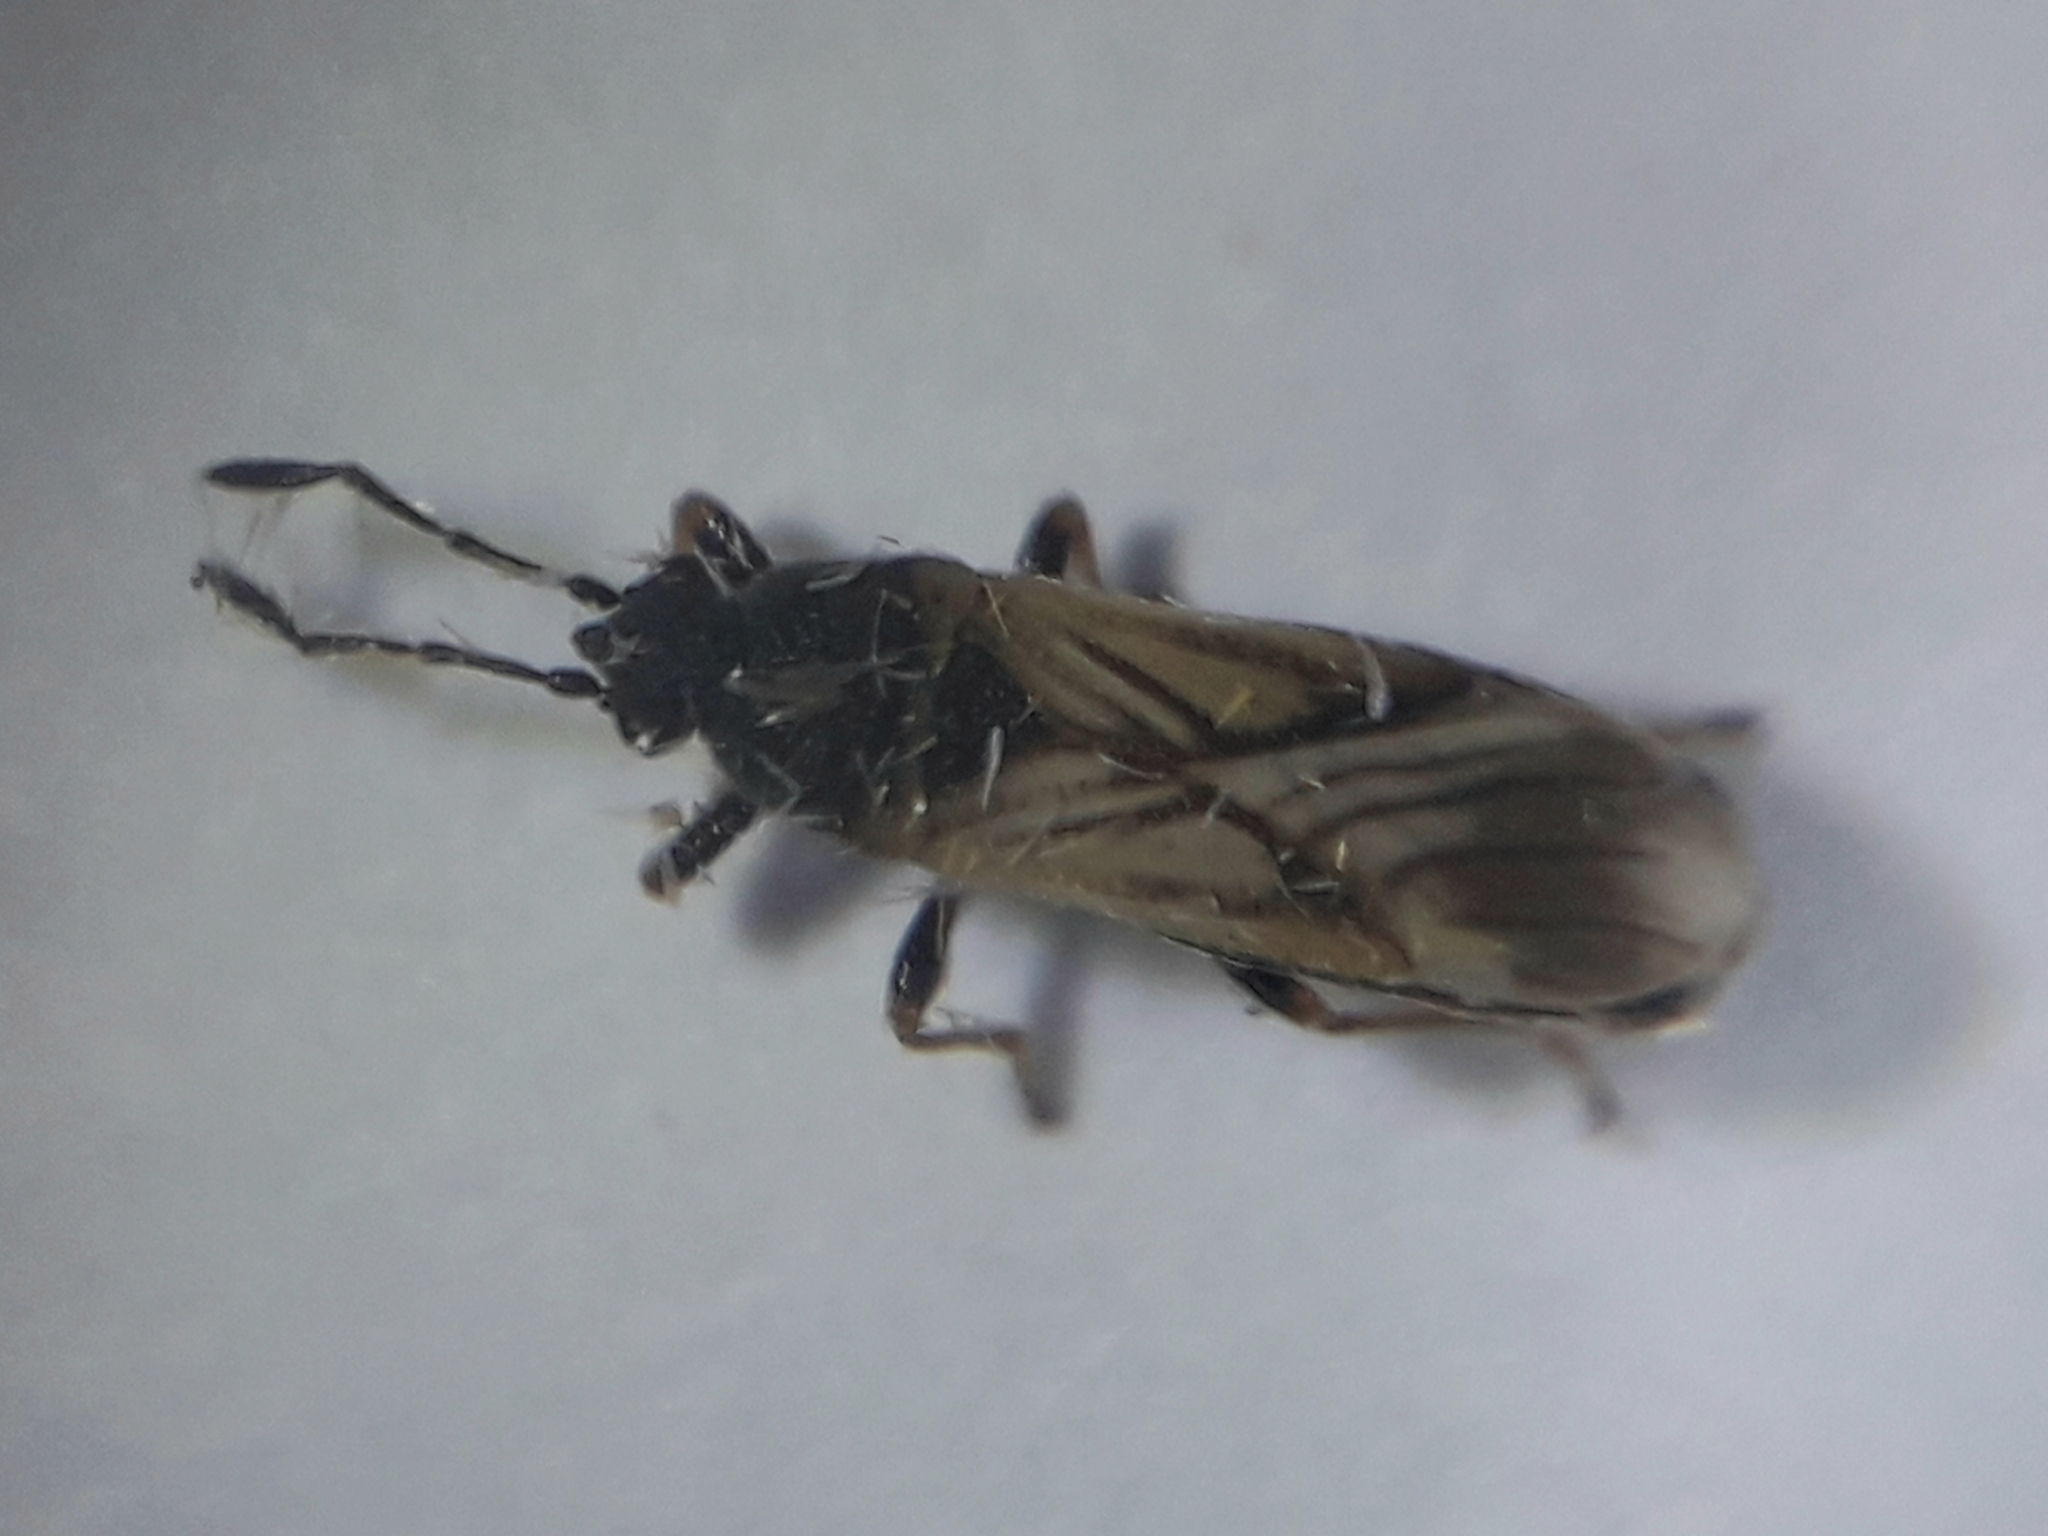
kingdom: Animalia
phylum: Arthropoda
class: Insecta
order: Hemiptera
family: Blissidae
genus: Ischnodemus
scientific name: Ischnodemus quadratus
